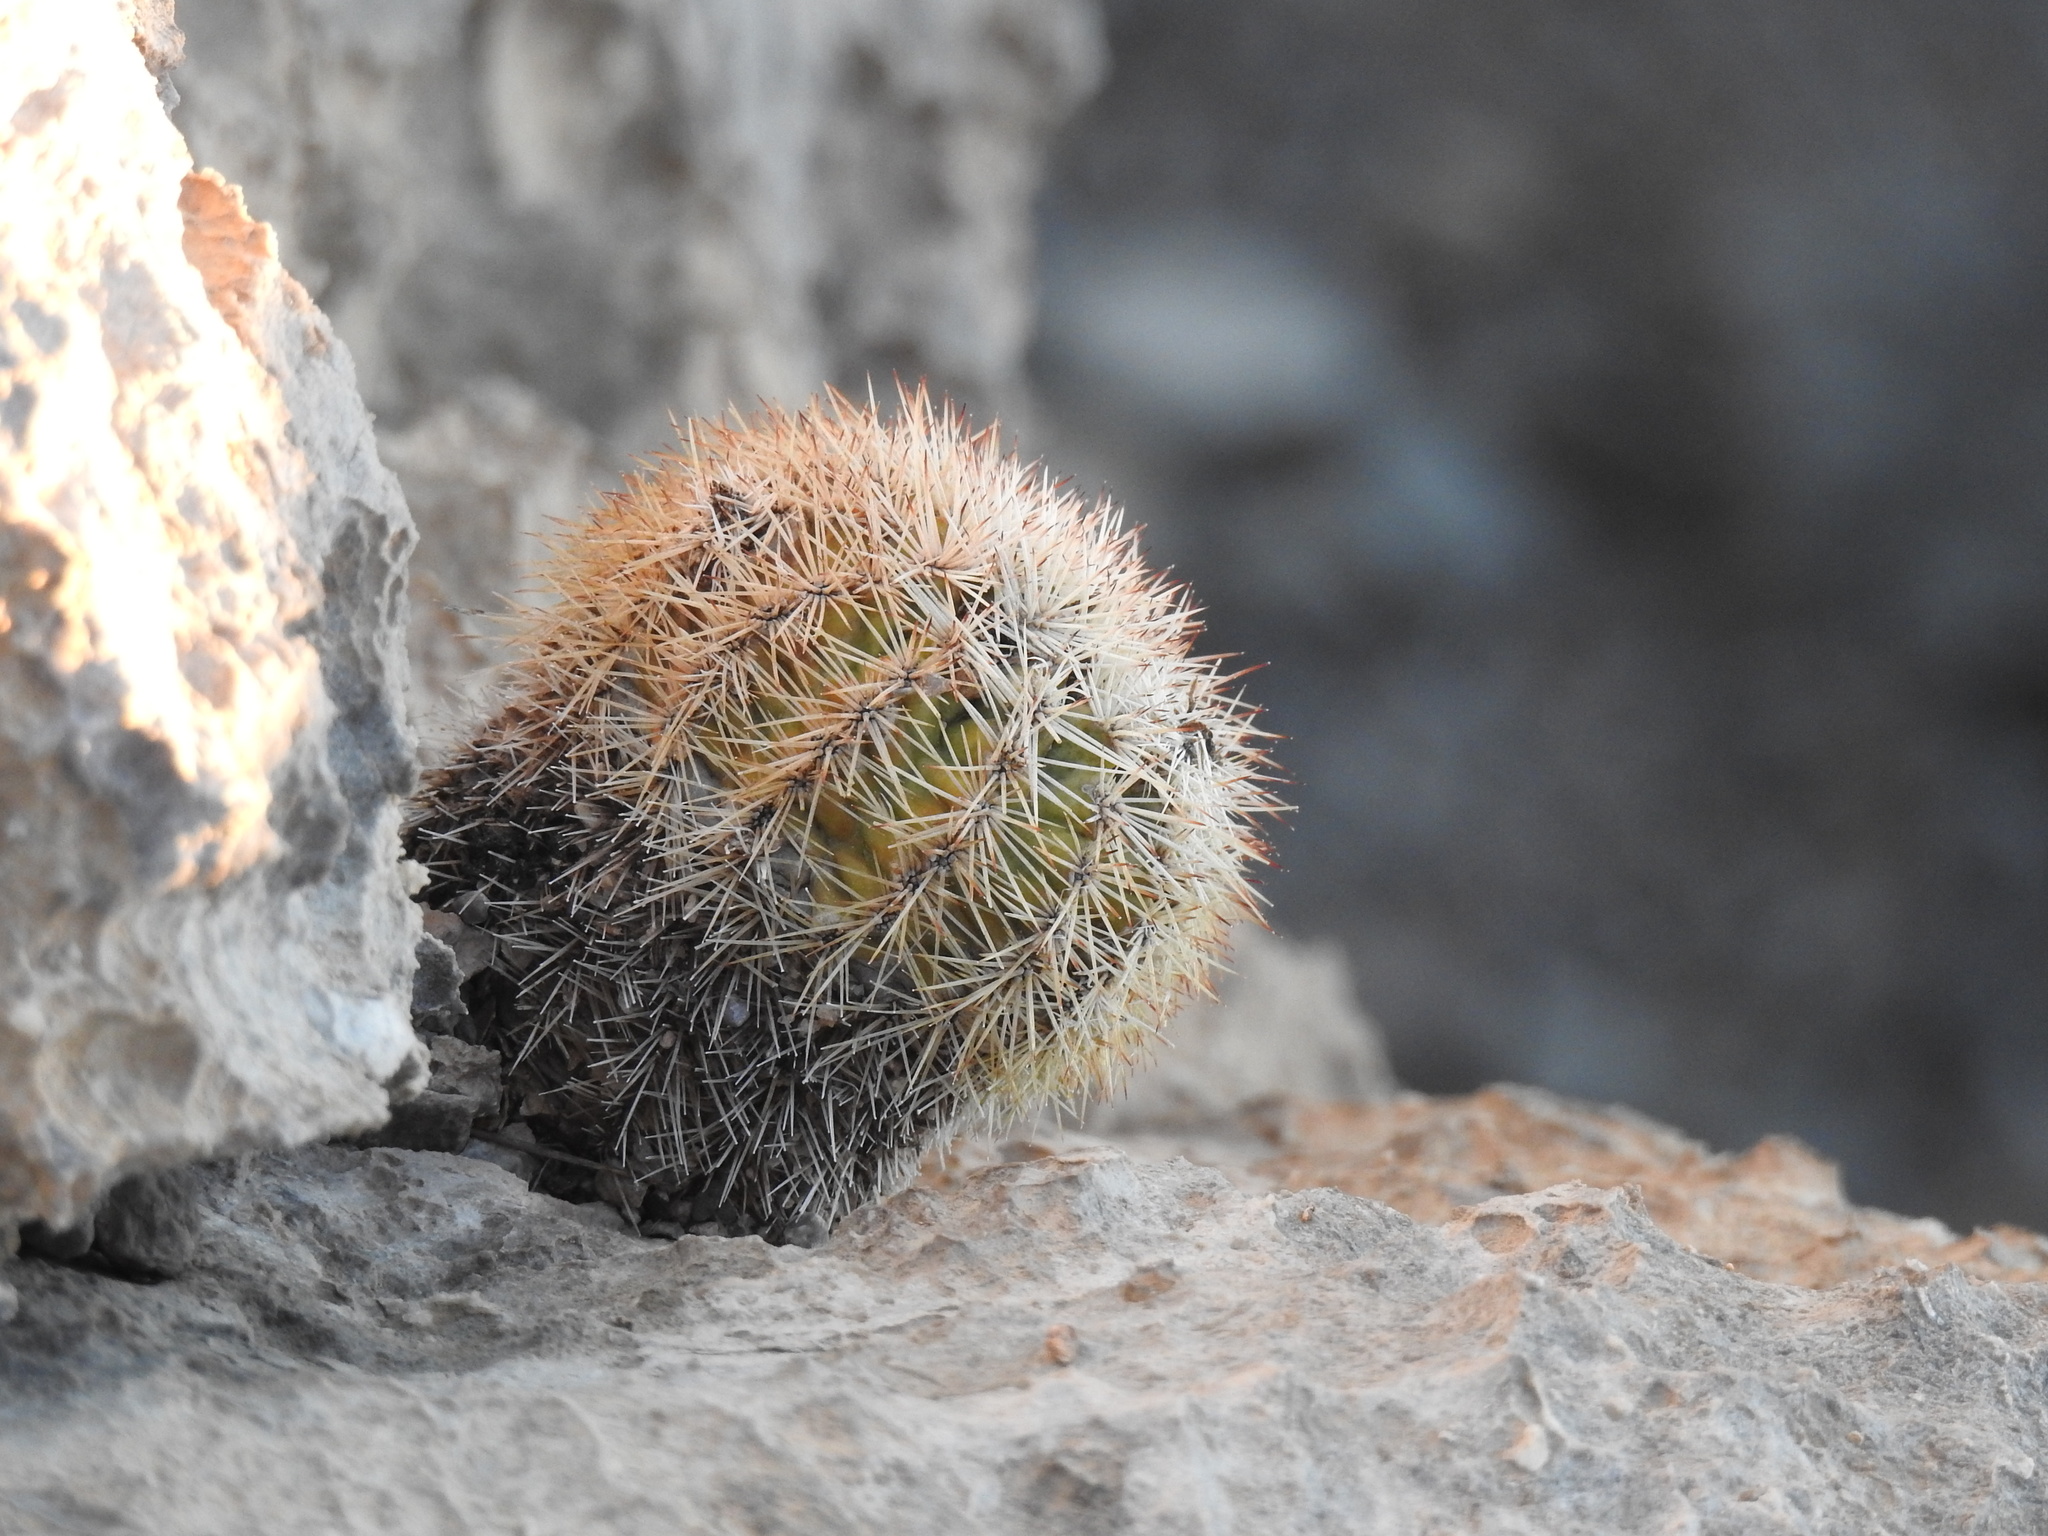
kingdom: Plantae
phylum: Tracheophyta
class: Magnoliopsida
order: Caryophyllales
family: Cactaceae
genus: Echinocereus
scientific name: Echinocereus dasyacanthus
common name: Spiny hedgehog cactus
